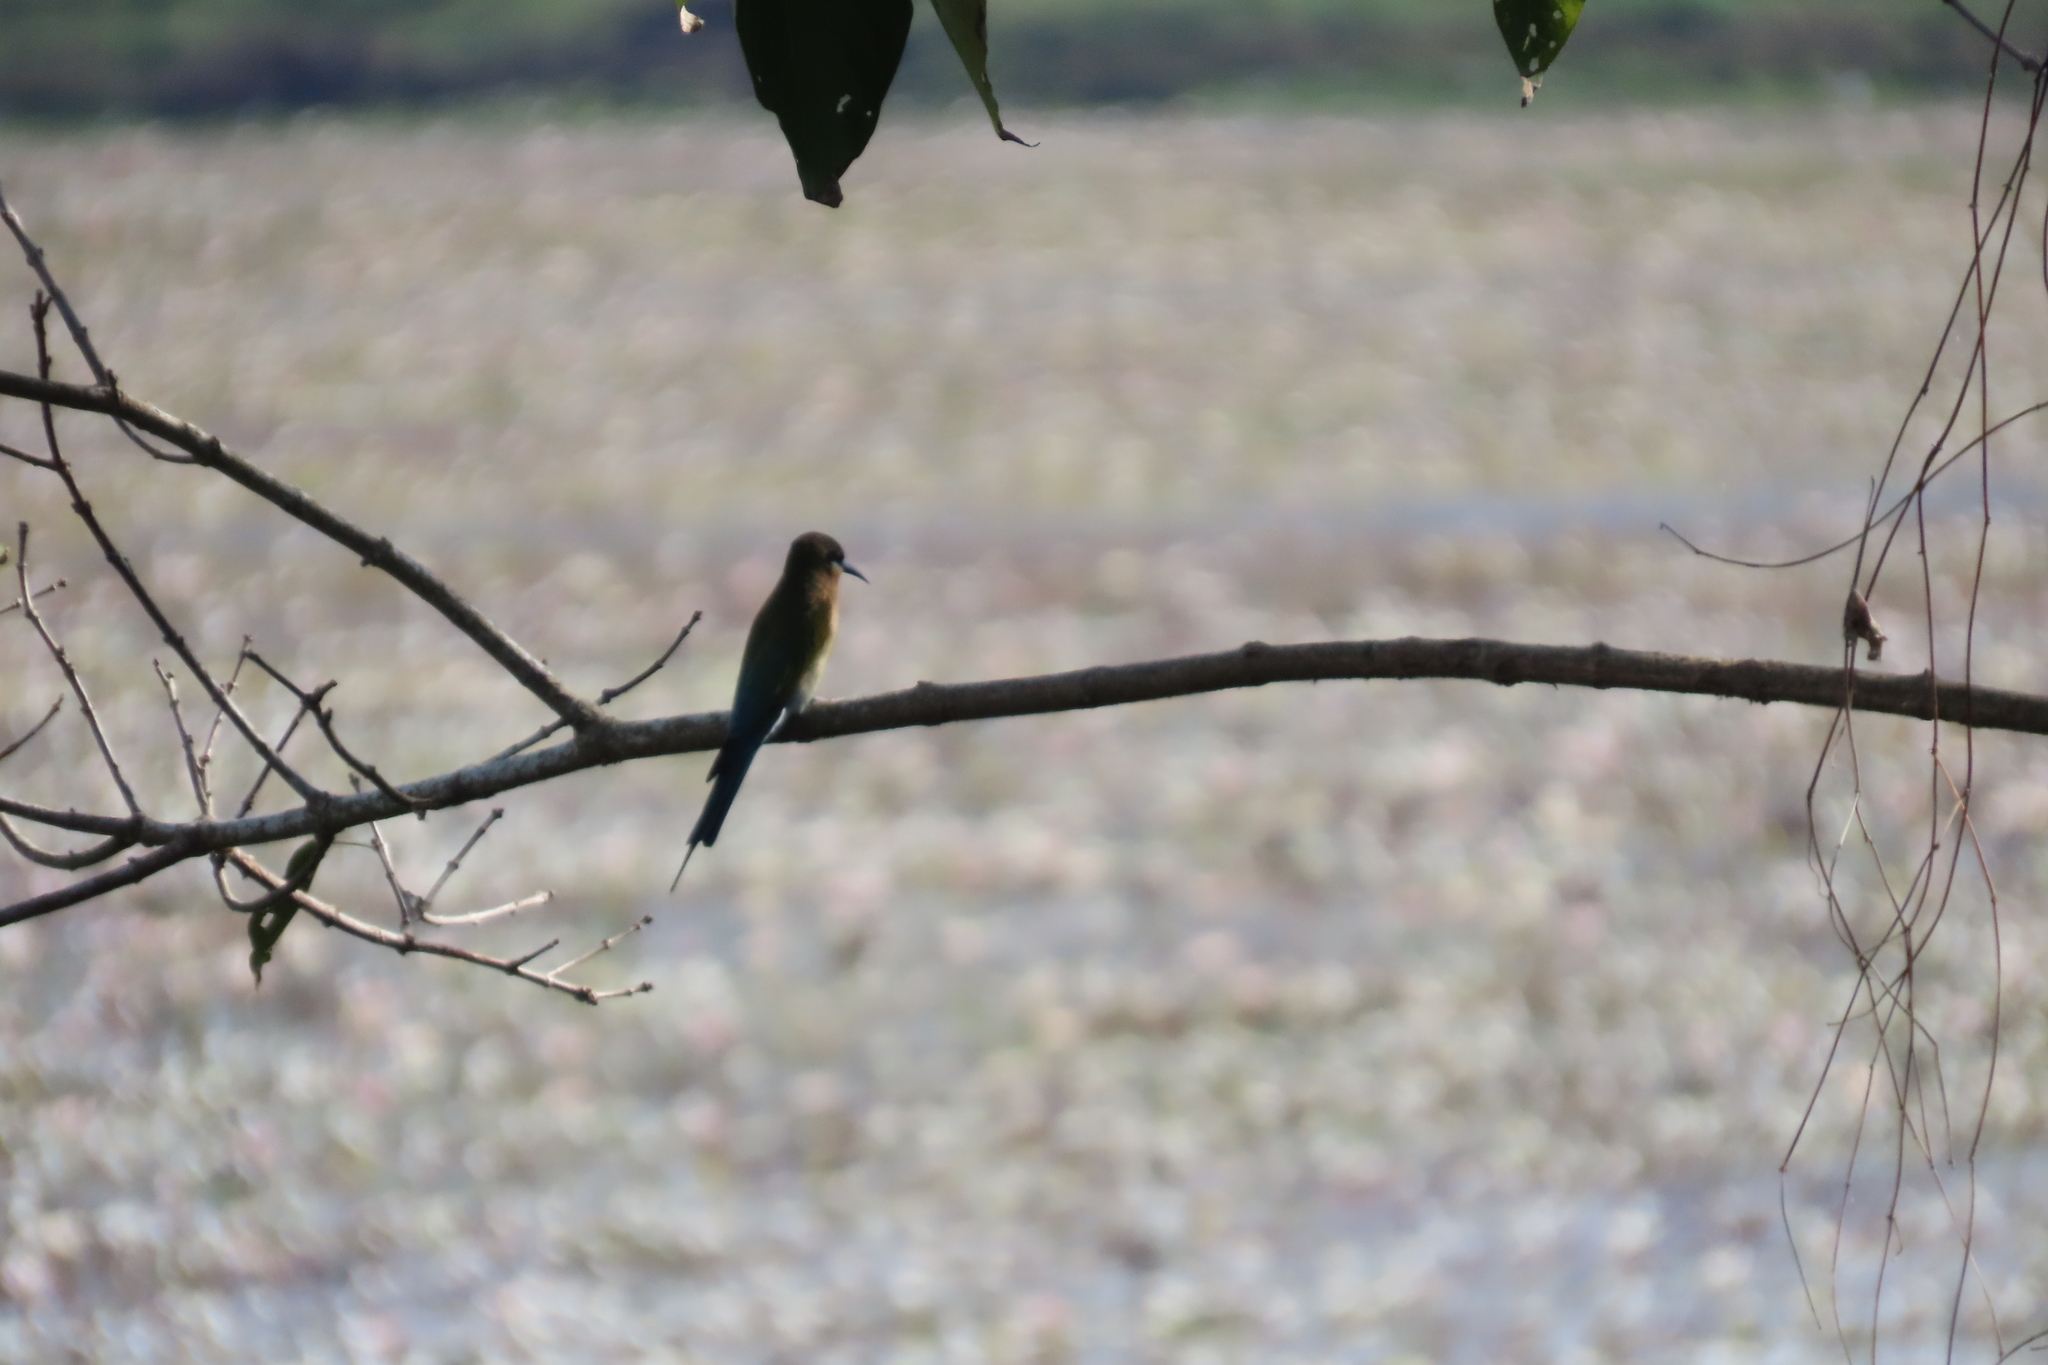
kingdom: Animalia
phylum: Chordata
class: Aves
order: Coraciiformes
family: Meropidae
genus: Merops
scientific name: Merops philippinus
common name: Blue-tailed bee-eater
